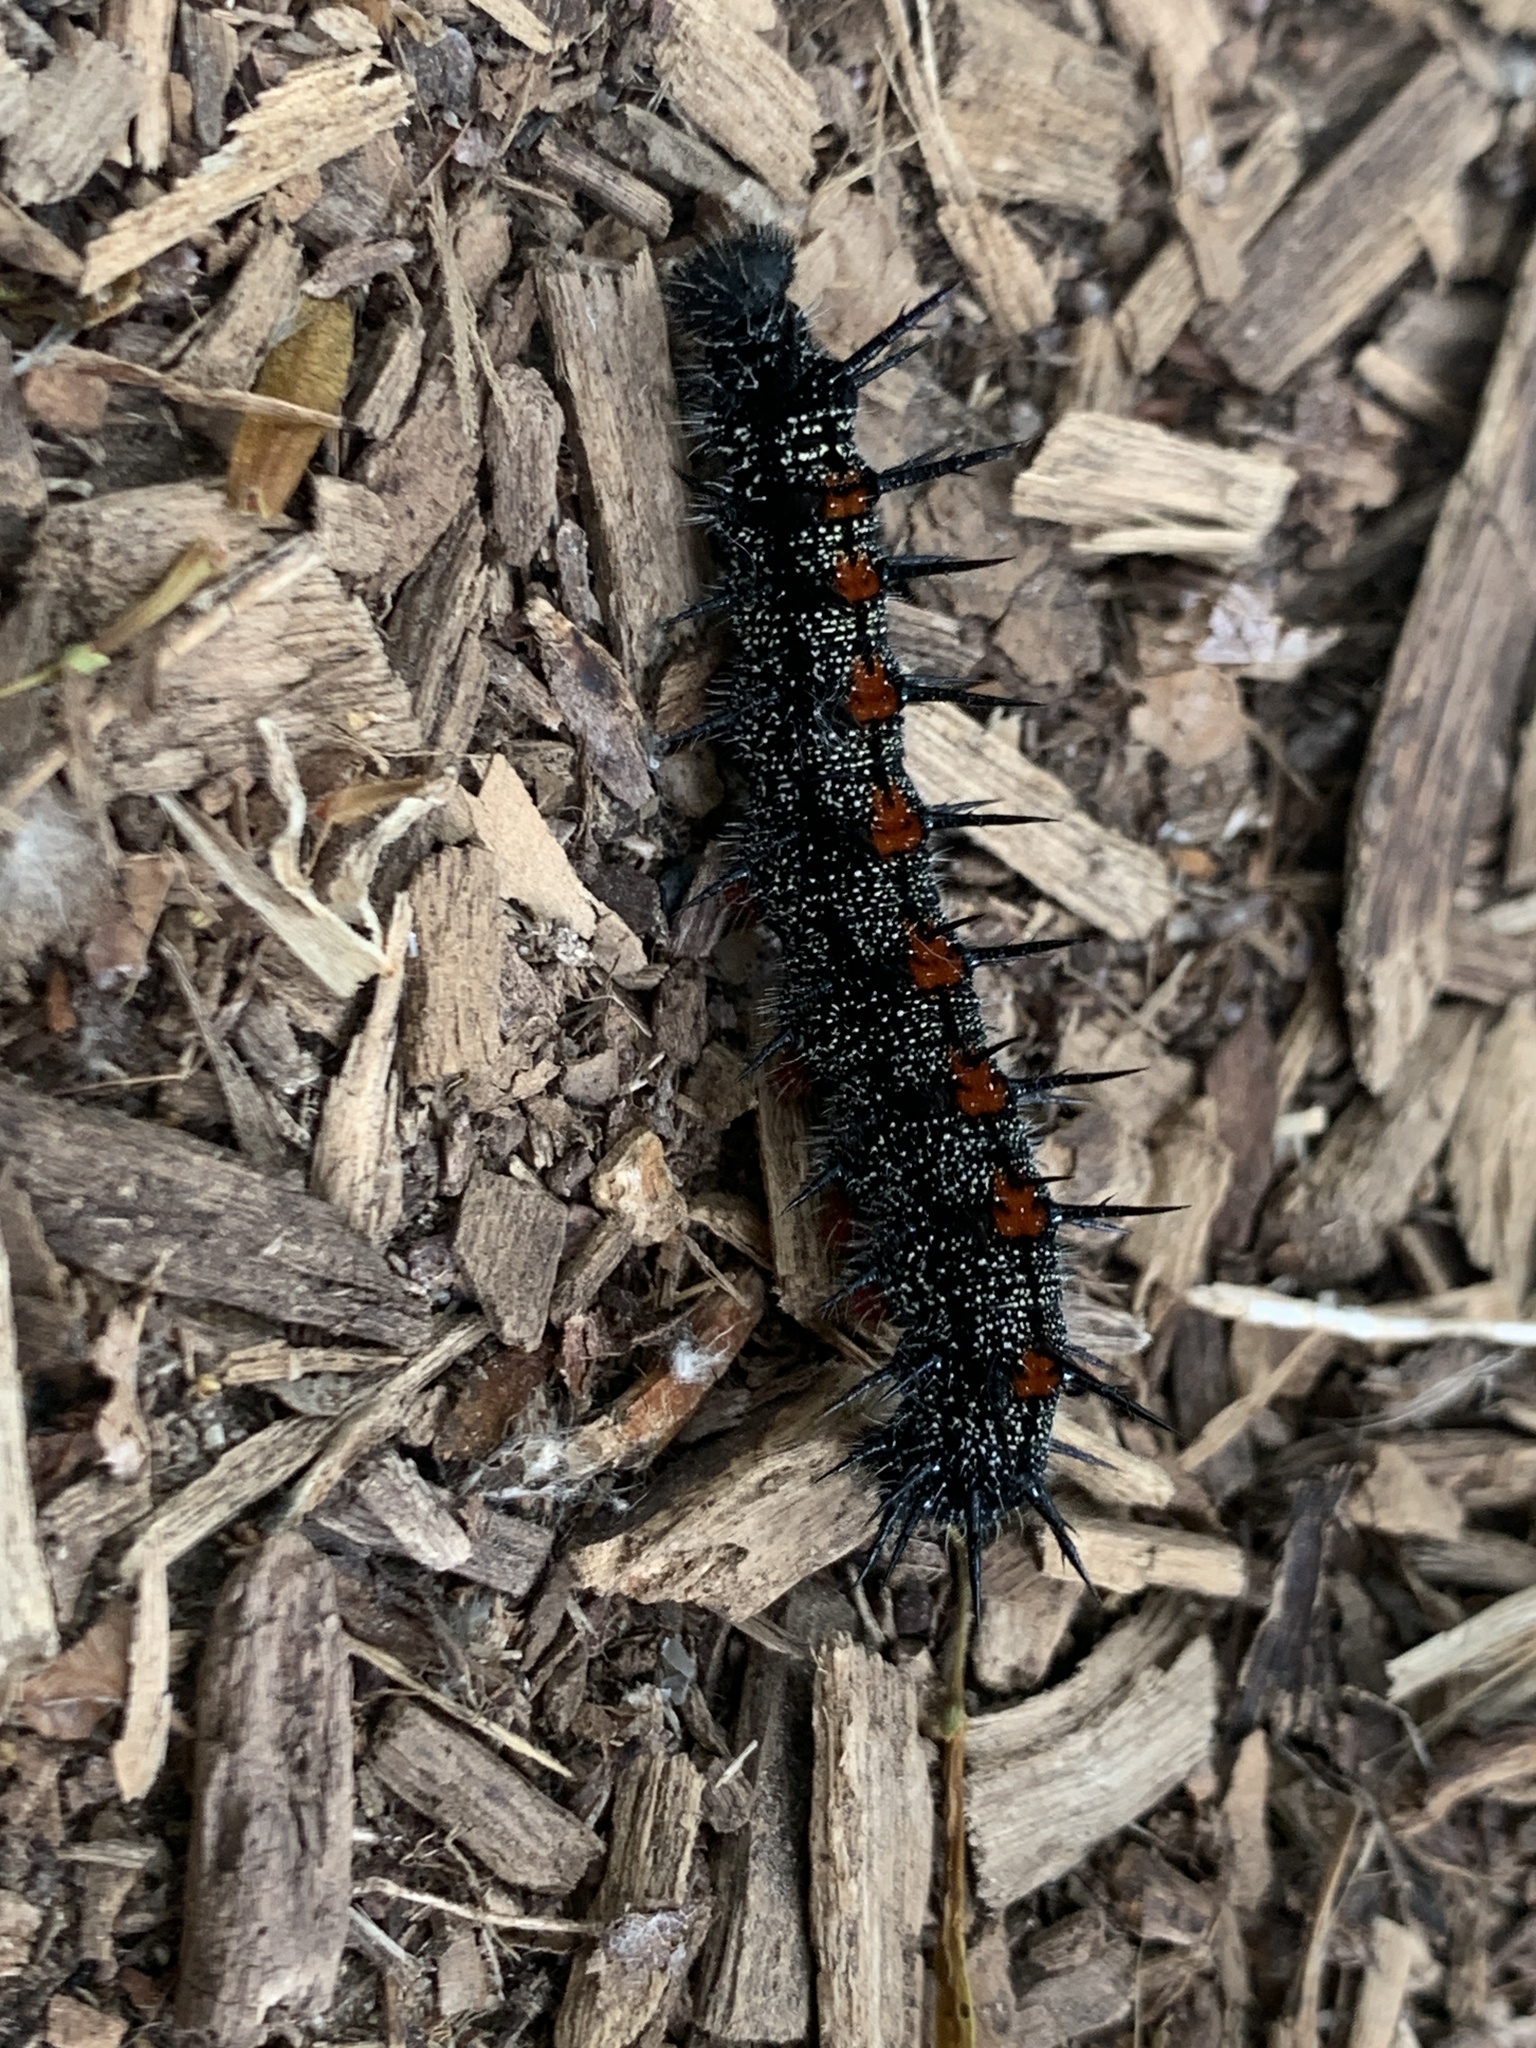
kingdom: Animalia
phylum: Arthropoda
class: Insecta
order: Lepidoptera
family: Nymphalidae
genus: Nymphalis
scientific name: Nymphalis antiopa
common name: Camberwell beauty
